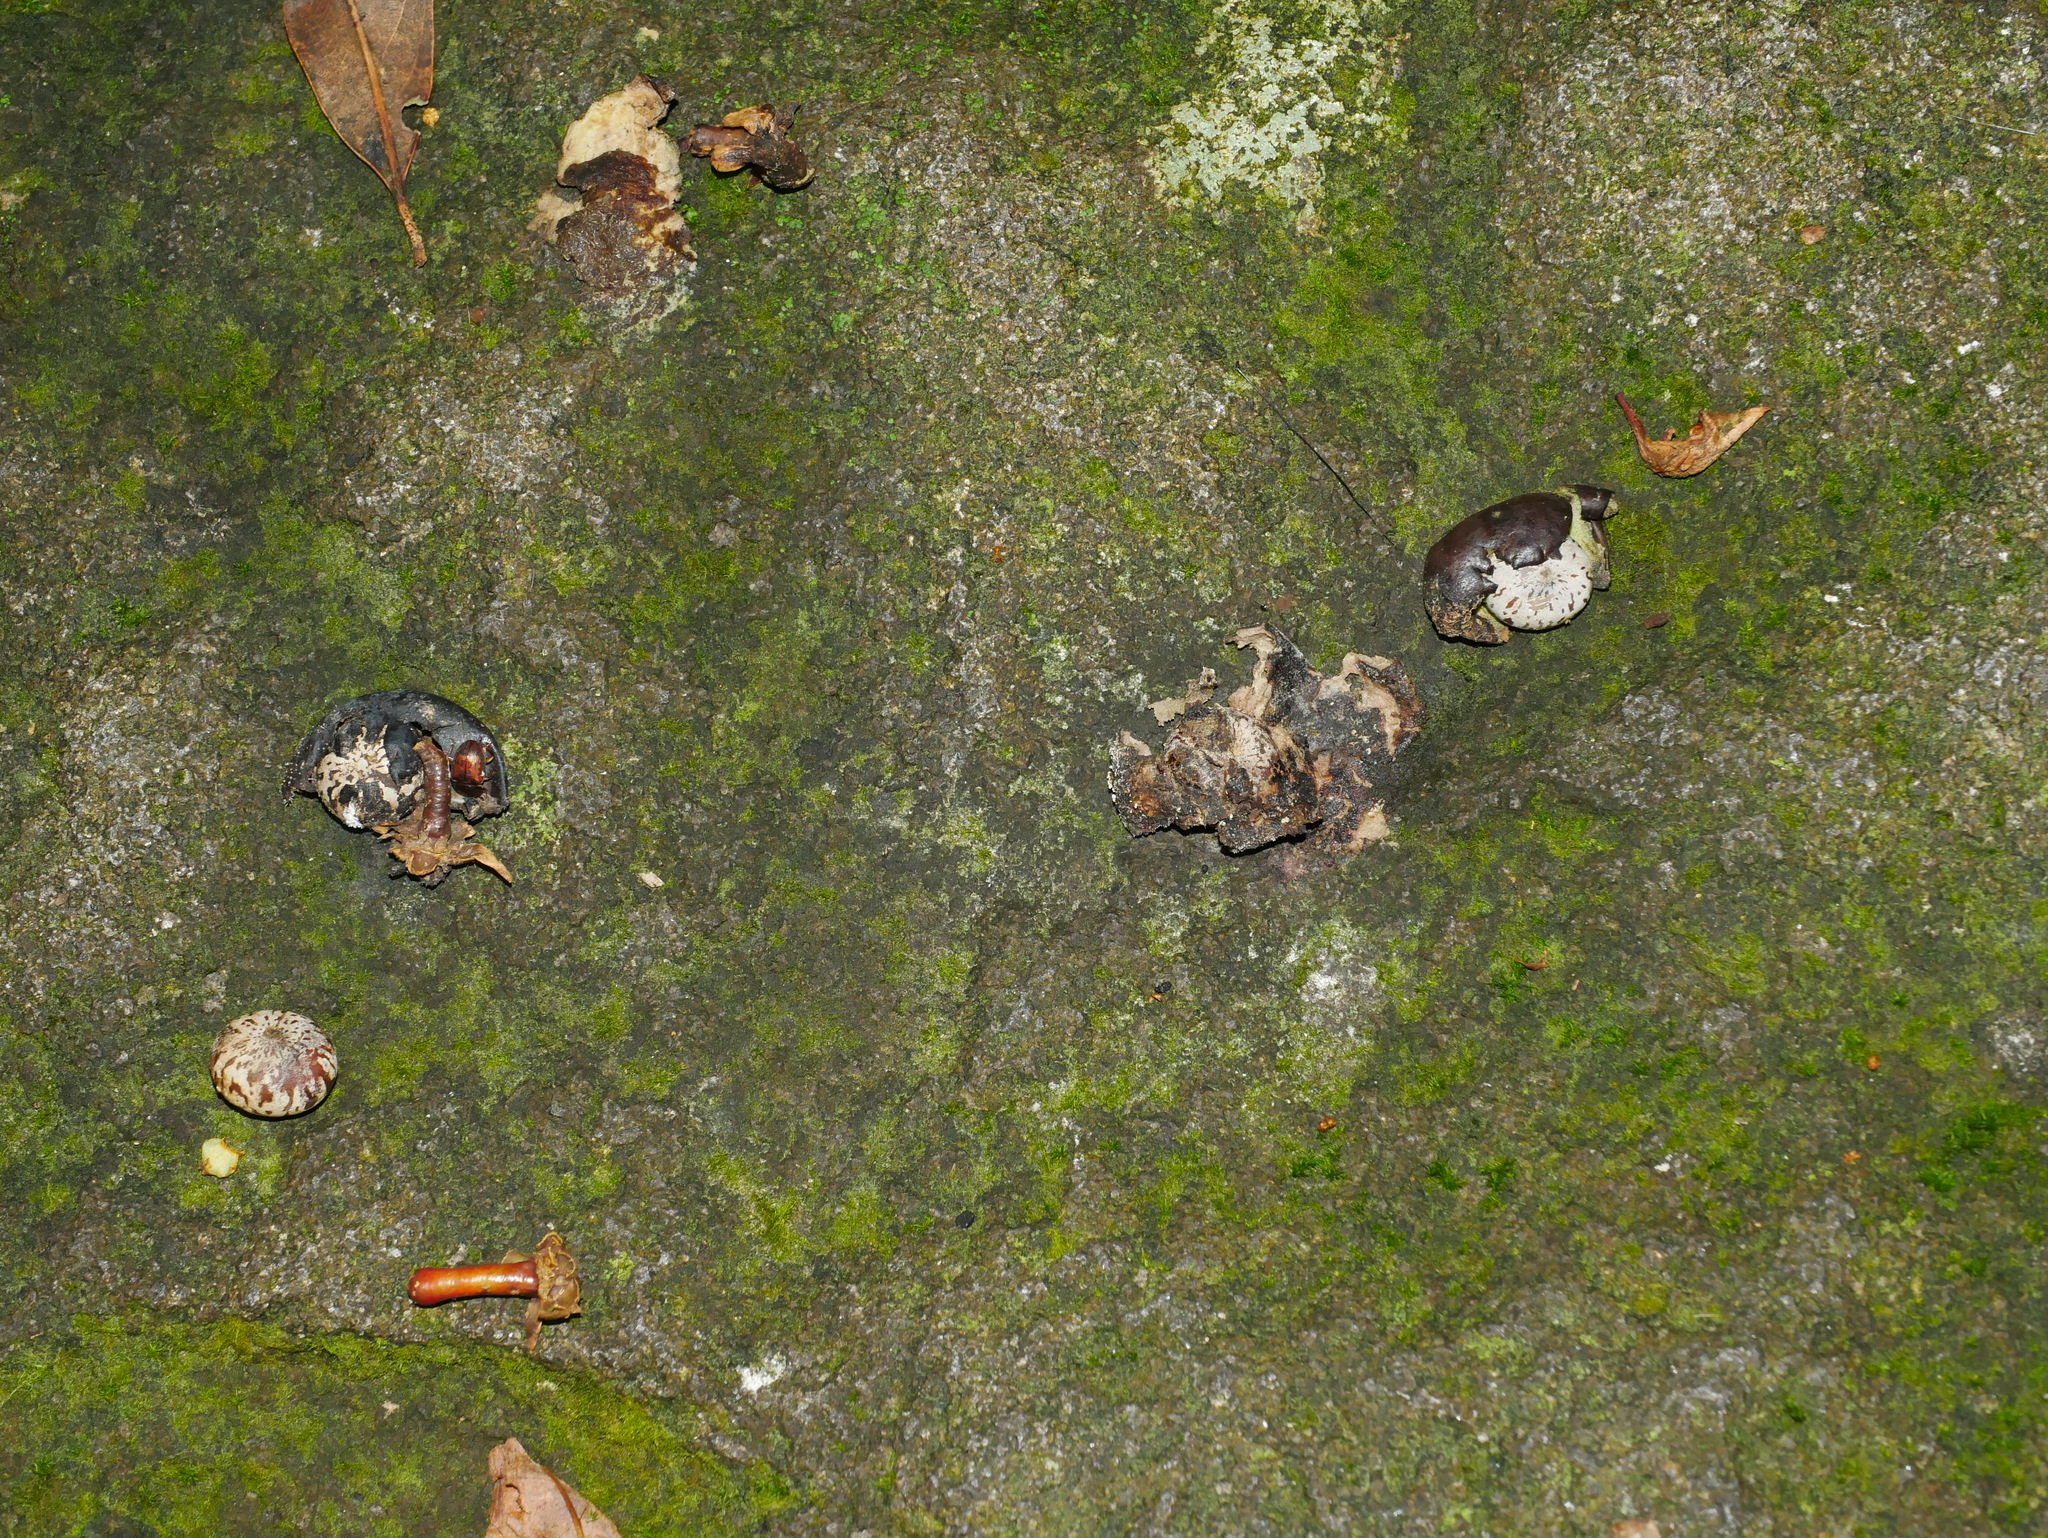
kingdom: Plantae
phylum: Tracheophyta
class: Magnoliopsida
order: Laurales
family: Lauraceae
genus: Machilus
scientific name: Machilus thunbergii
